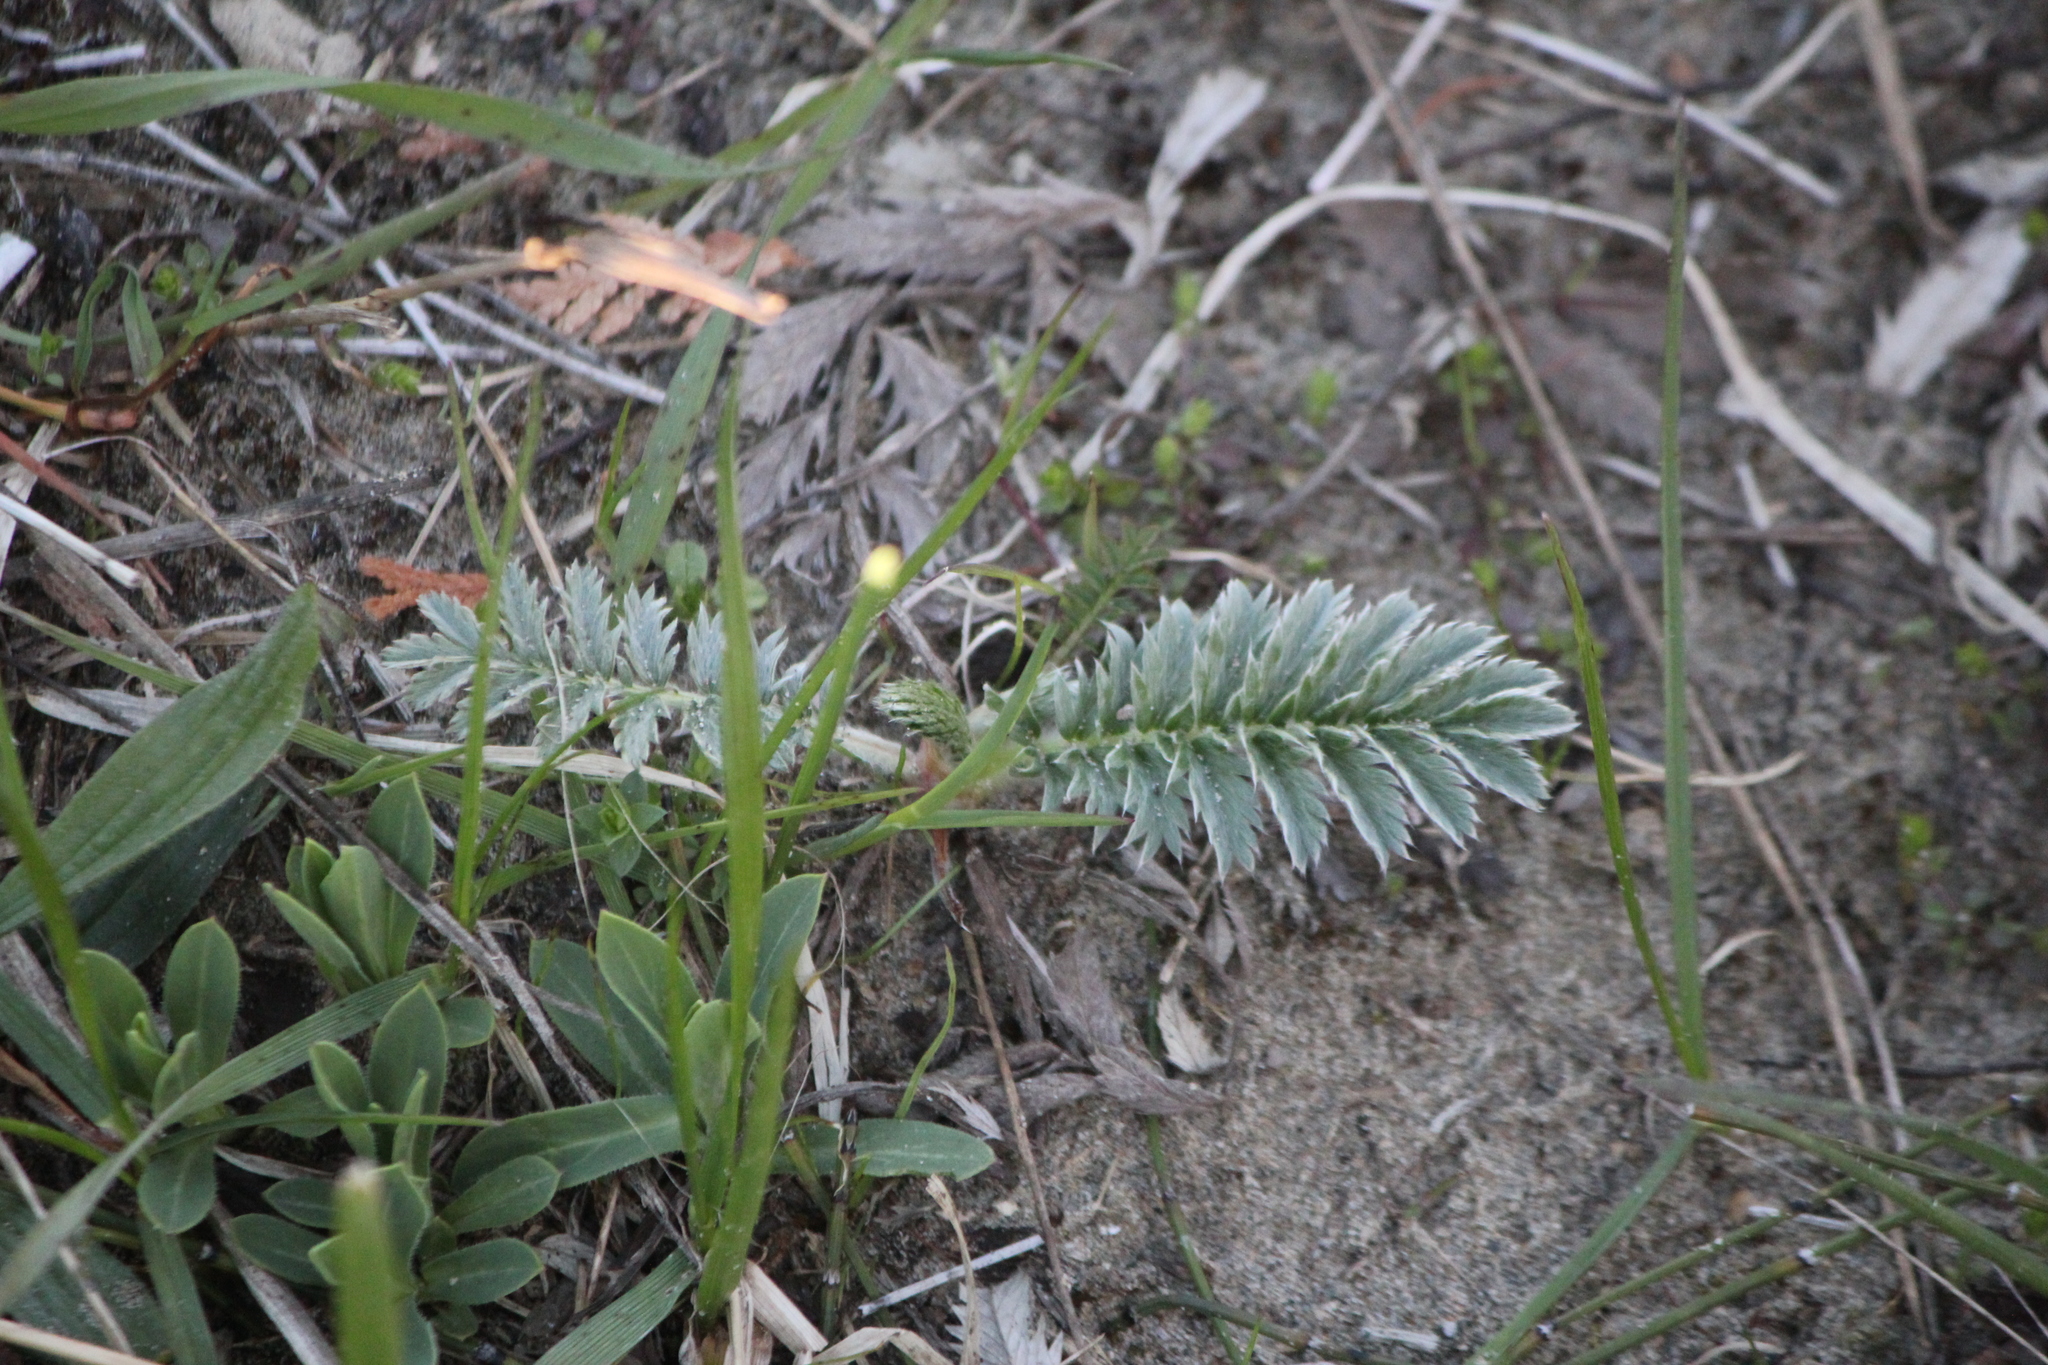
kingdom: Plantae
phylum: Tracheophyta
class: Magnoliopsida
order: Rosales
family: Rosaceae
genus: Argentina
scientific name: Argentina anserina
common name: Common silverweed
